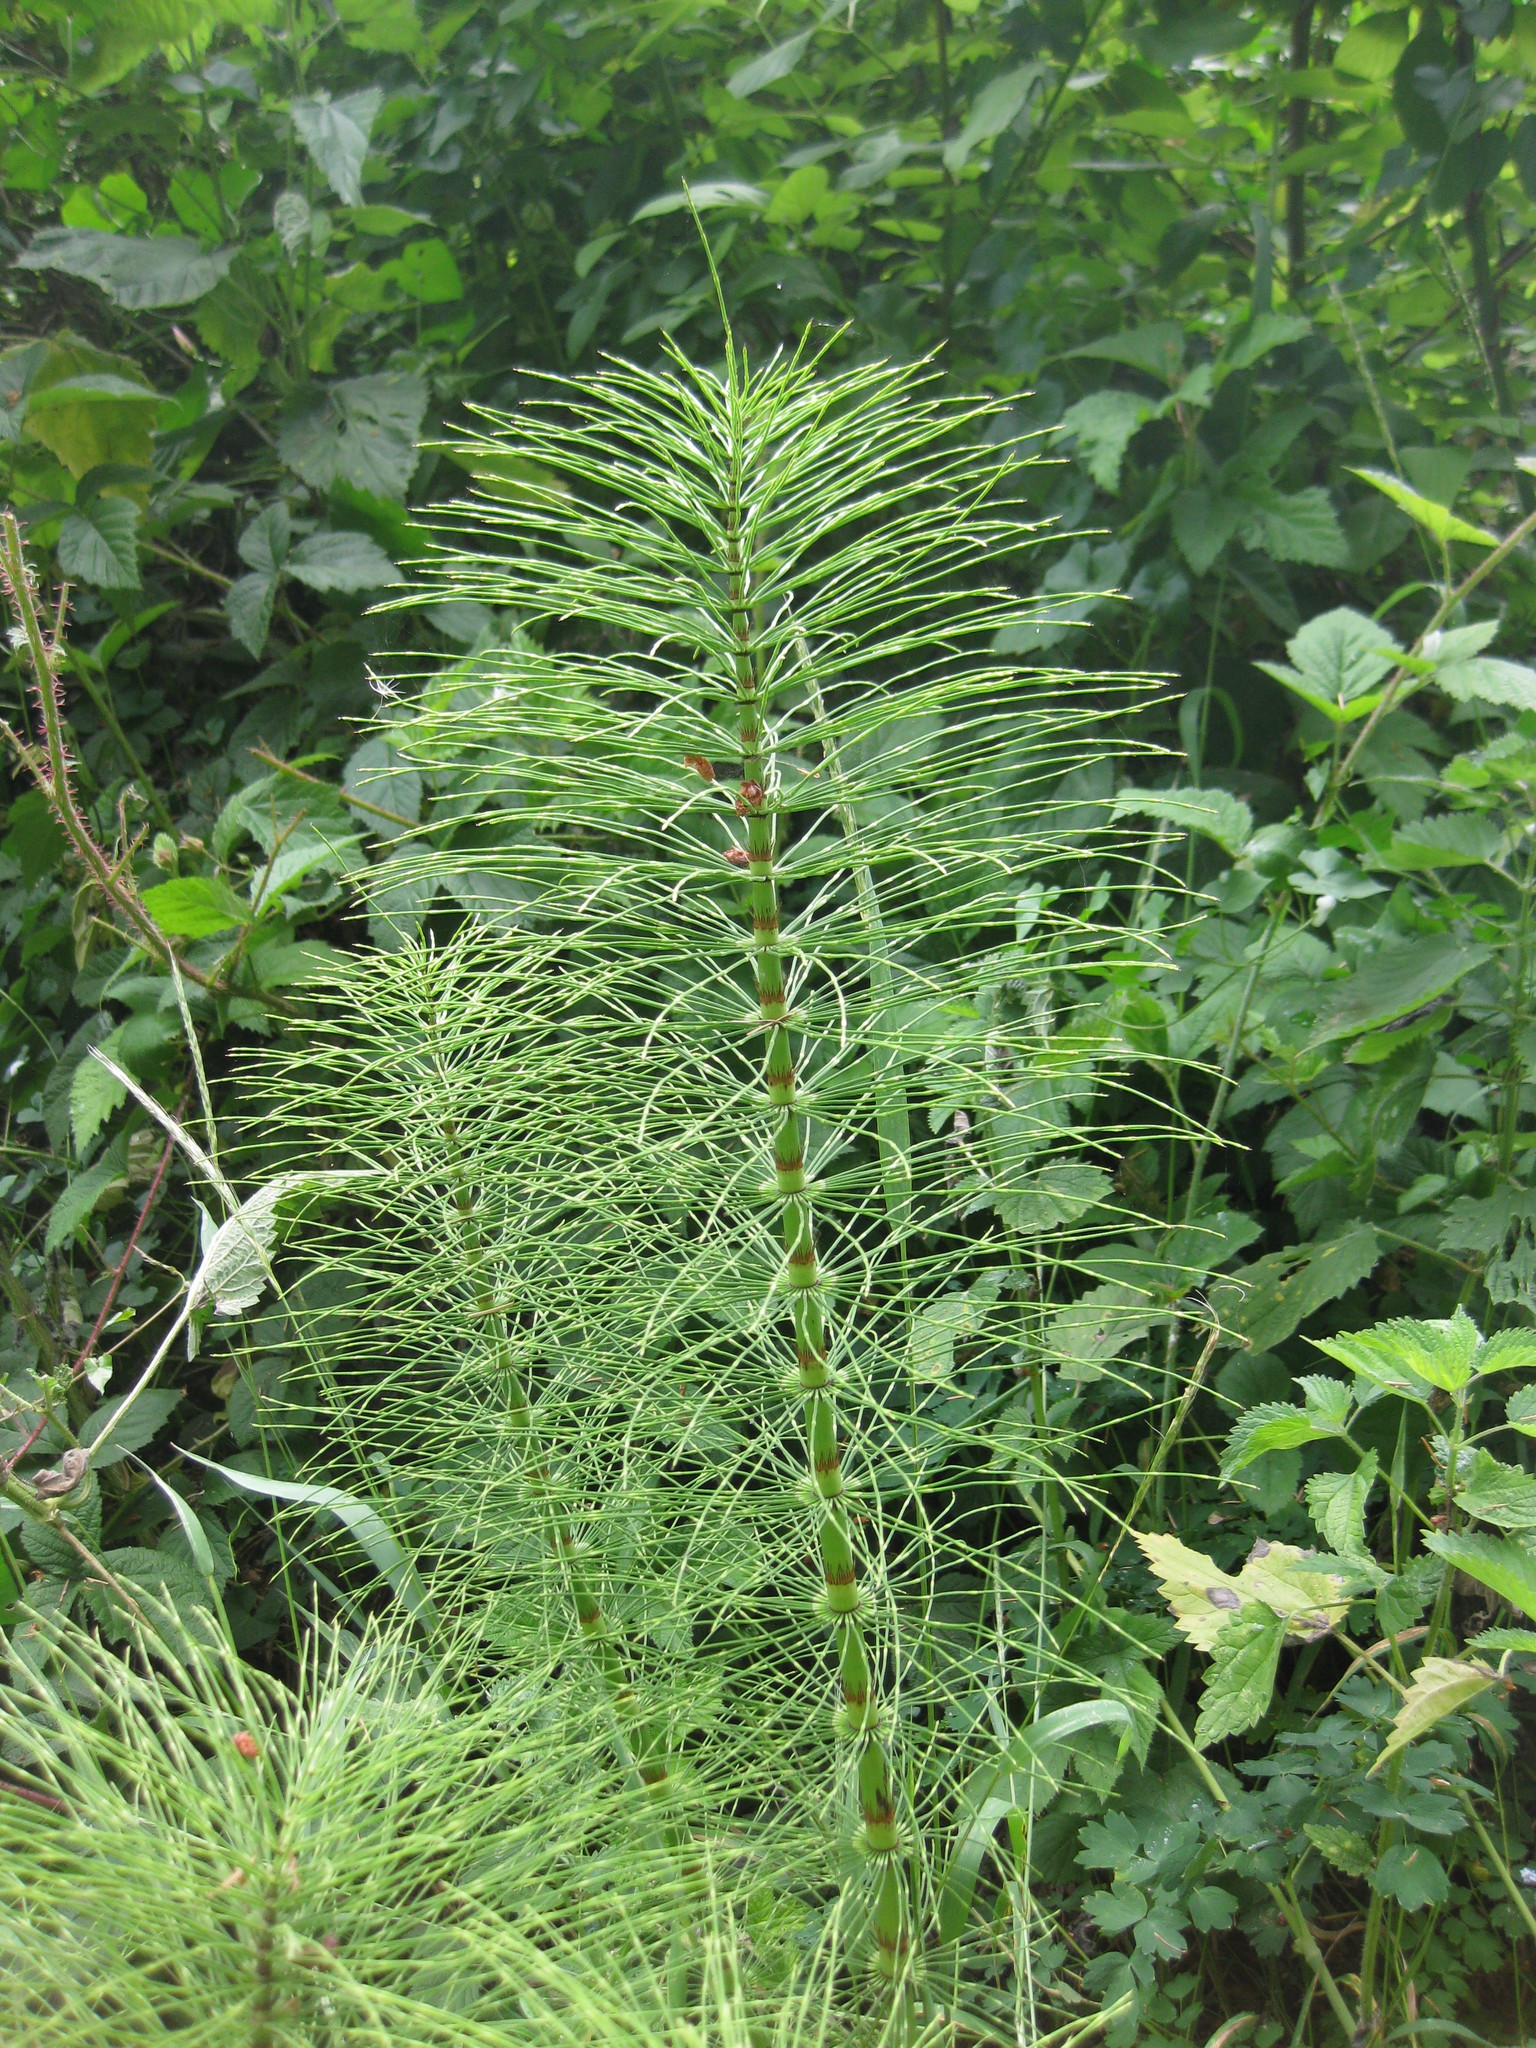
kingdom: Plantae
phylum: Tracheophyta
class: Polypodiopsida
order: Equisetales
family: Equisetaceae
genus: Equisetum
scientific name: Equisetum telmateia
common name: Great horsetail
